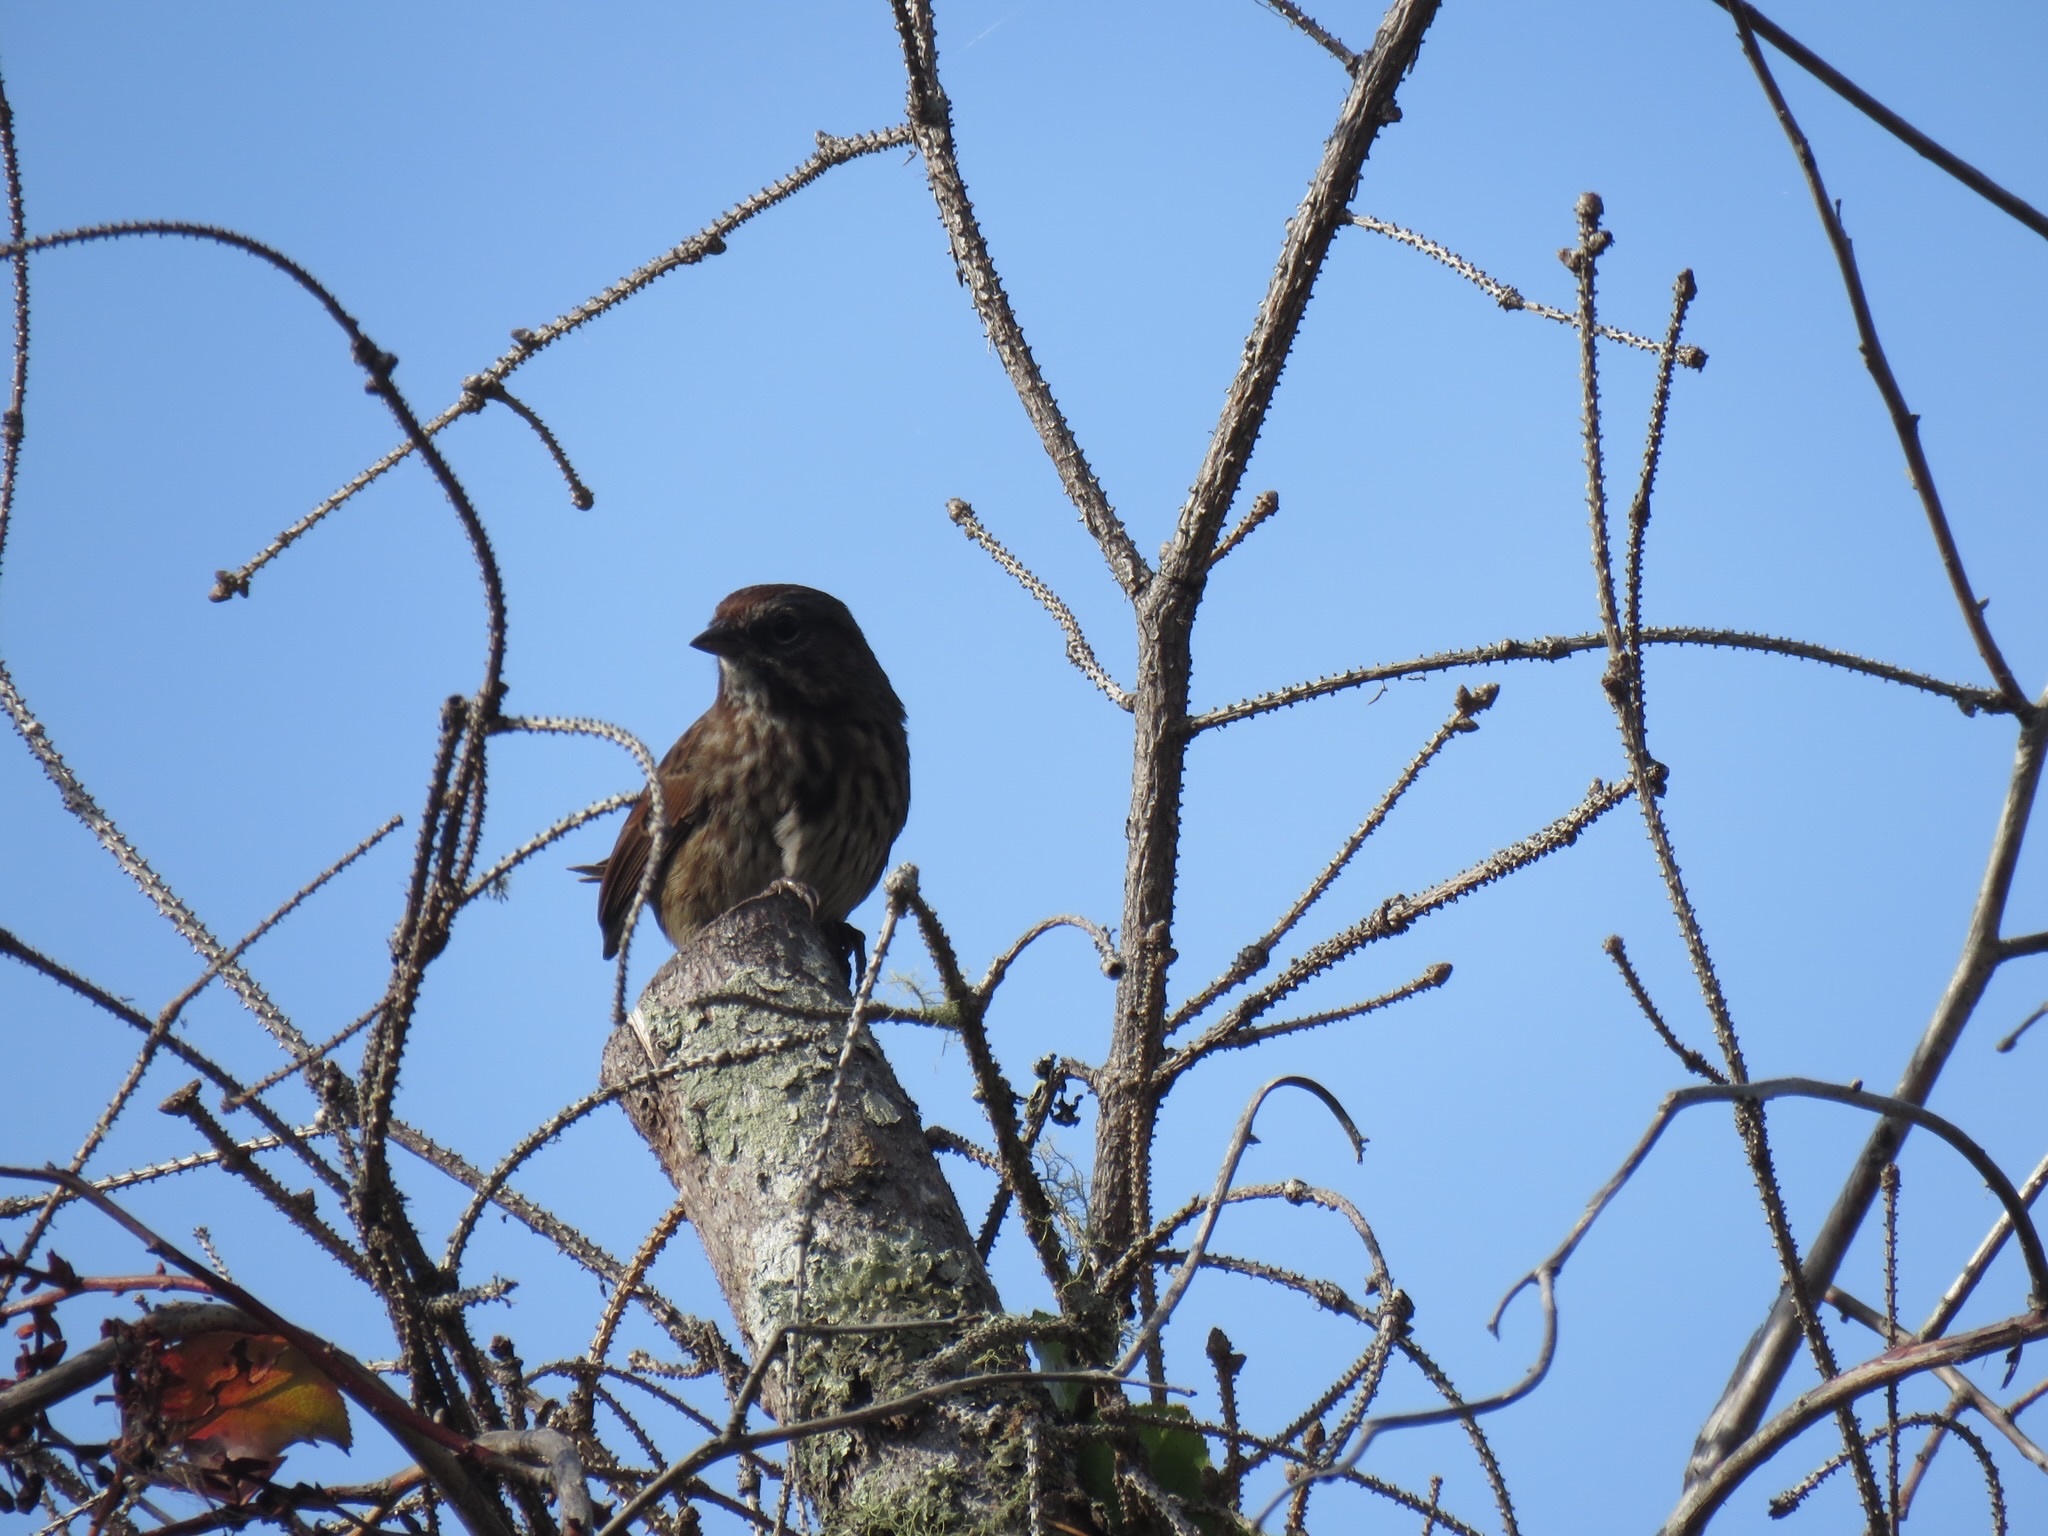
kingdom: Animalia
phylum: Chordata
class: Aves
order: Passeriformes
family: Passerellidae
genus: Melospiza
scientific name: Melospiza melodia
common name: Song sparrow
